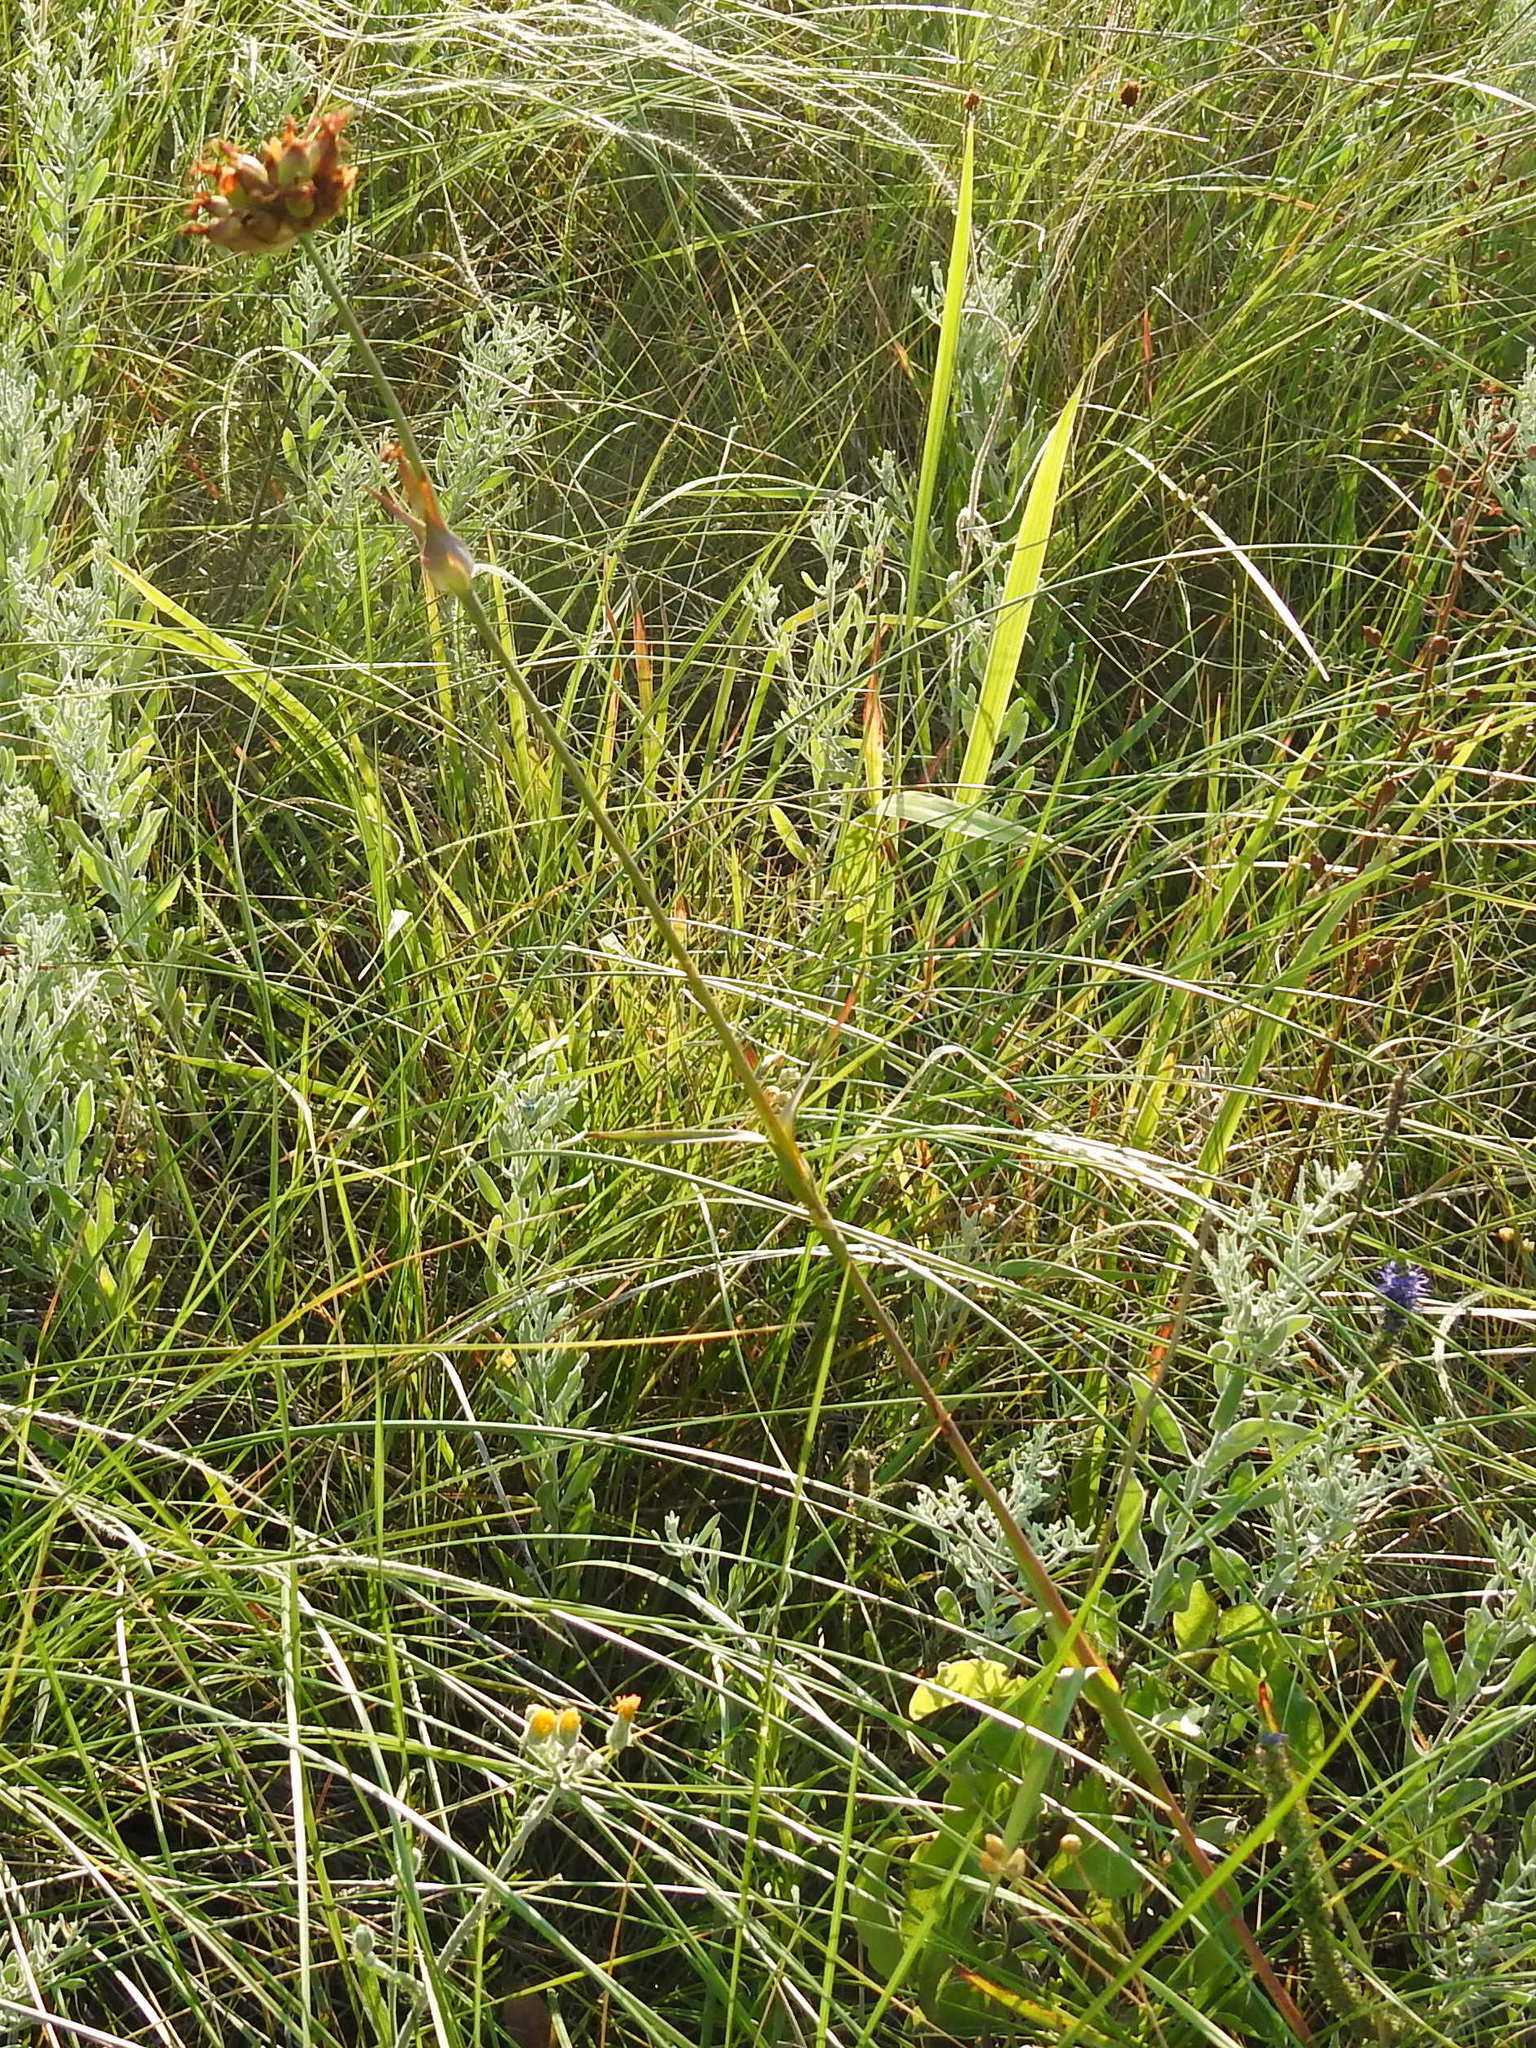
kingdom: Plantae
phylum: Tracheophyta
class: Magnoliopsida
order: Caryophyllales
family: Caryophyllaceae
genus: Dianthus
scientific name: Dianthus capitatus
